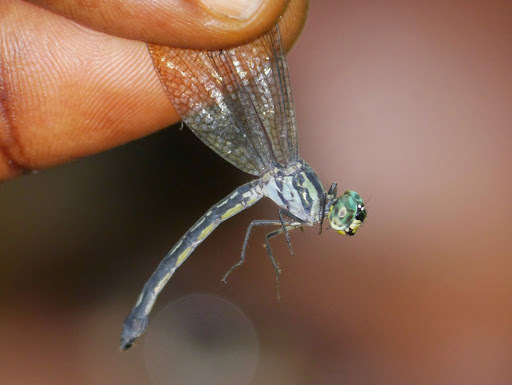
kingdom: Animalia
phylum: Arthropoda
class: Insecta
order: Odonata
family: Libellulidae
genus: Micromacromia
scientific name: Micromacromia camerunica
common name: Stream micmac
